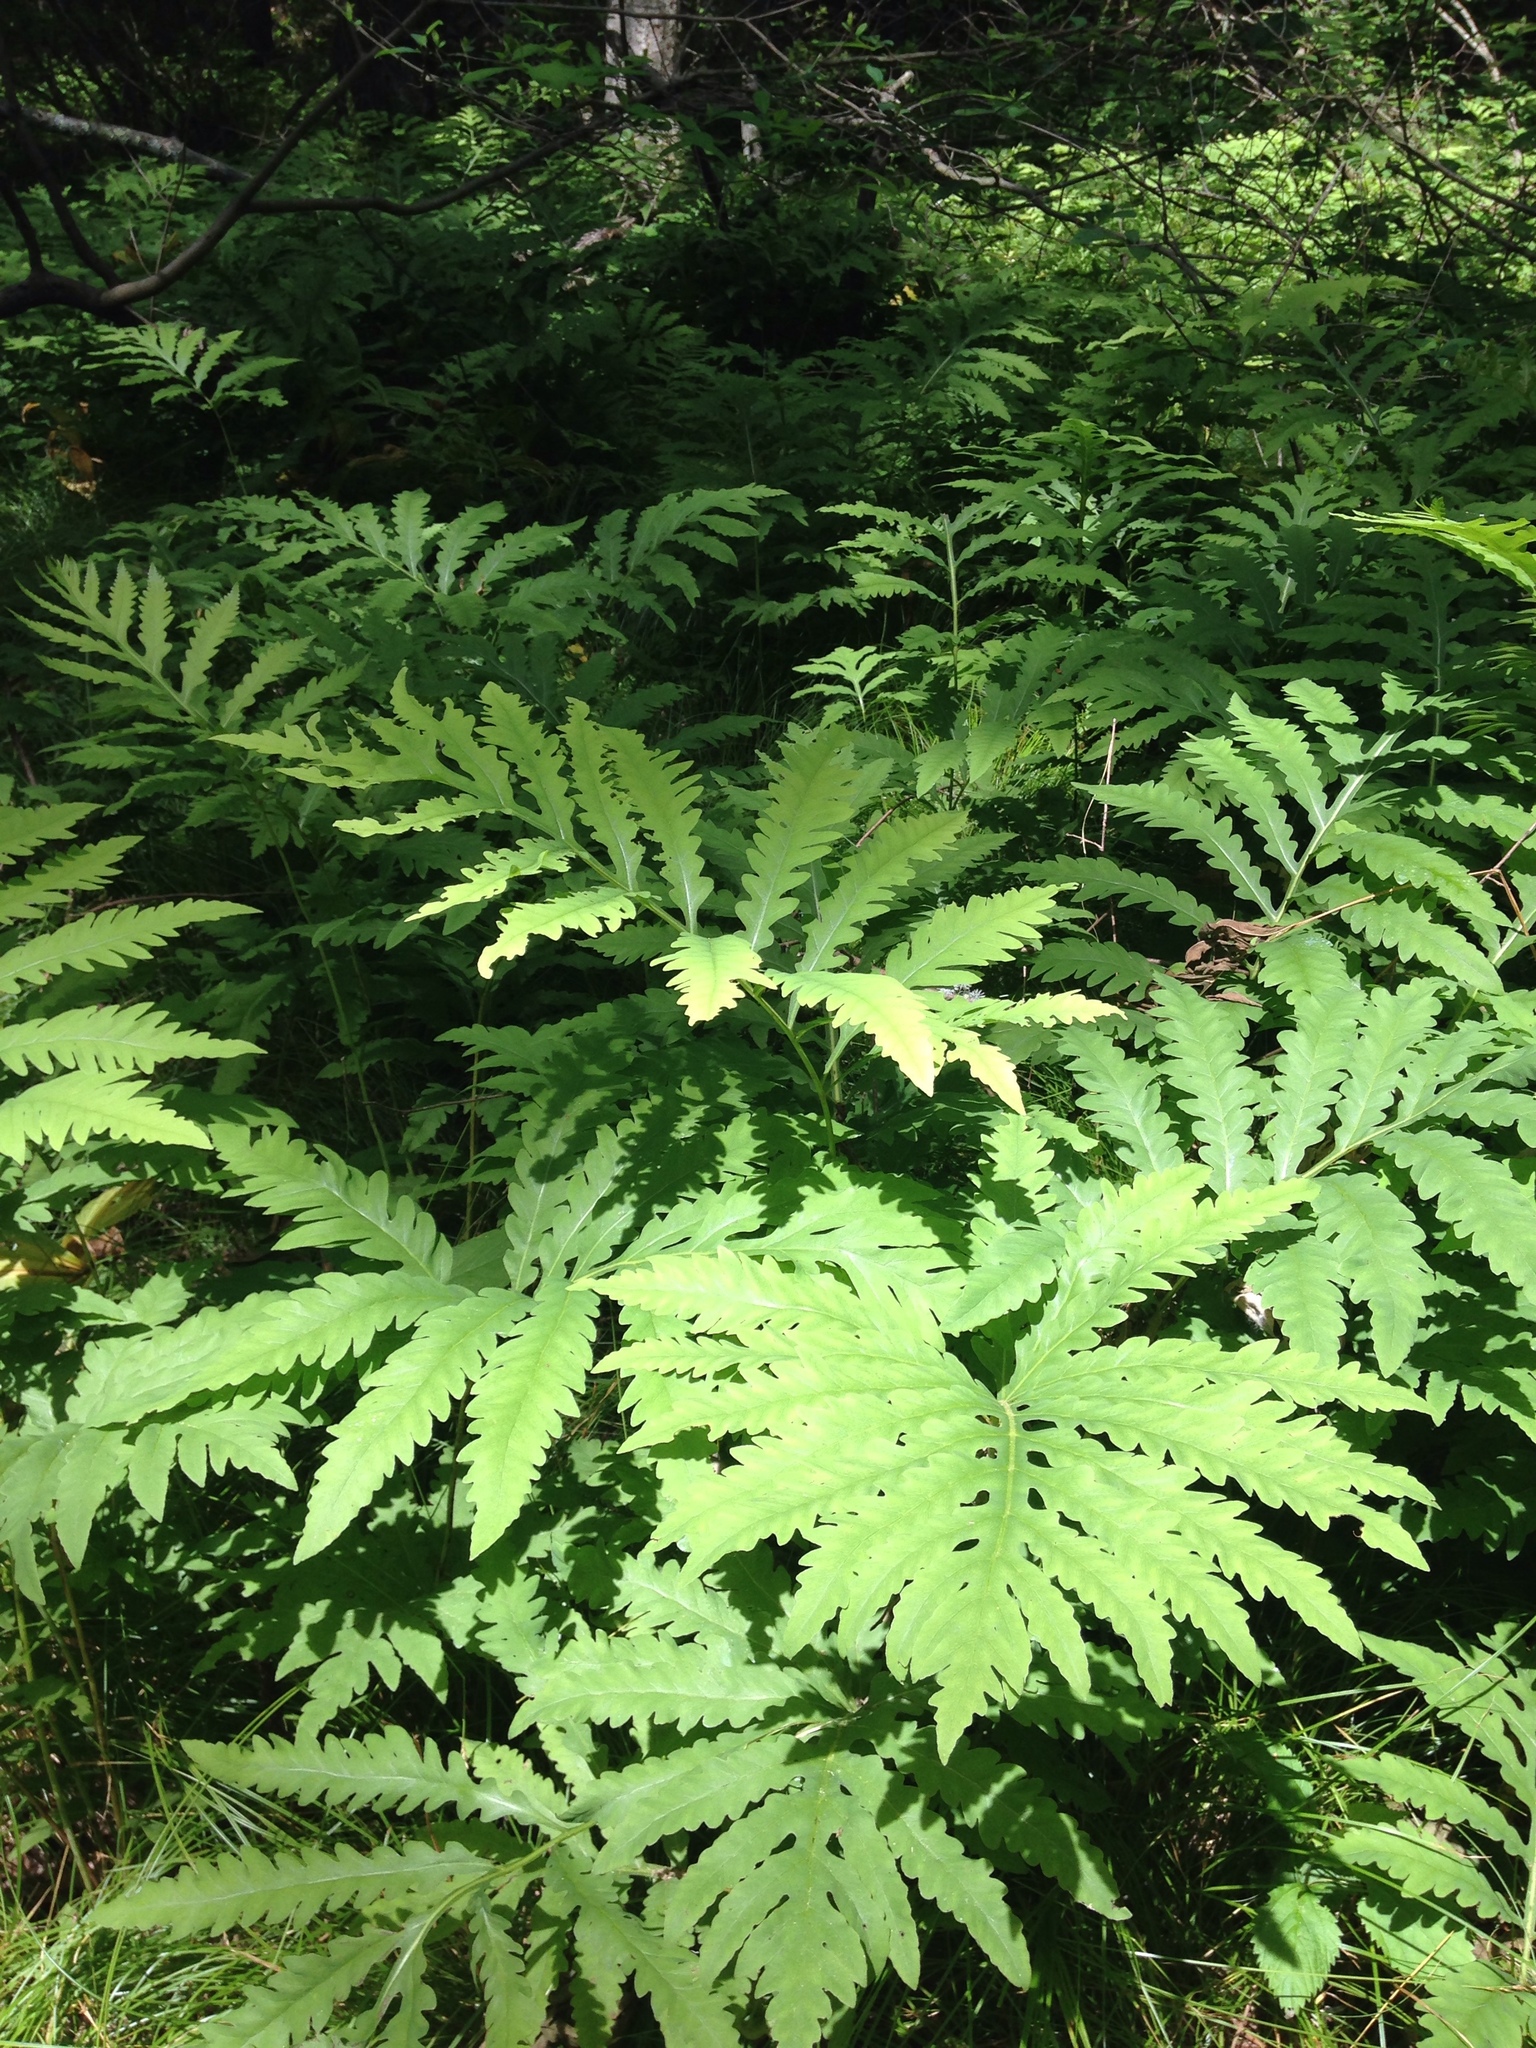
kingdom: Plantae
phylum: Tracheophyta
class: Polypodiopsida
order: Polypodiales
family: Onocleaceae
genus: Onoclea
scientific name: Onoclea sensibilis
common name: Sensitive fern
